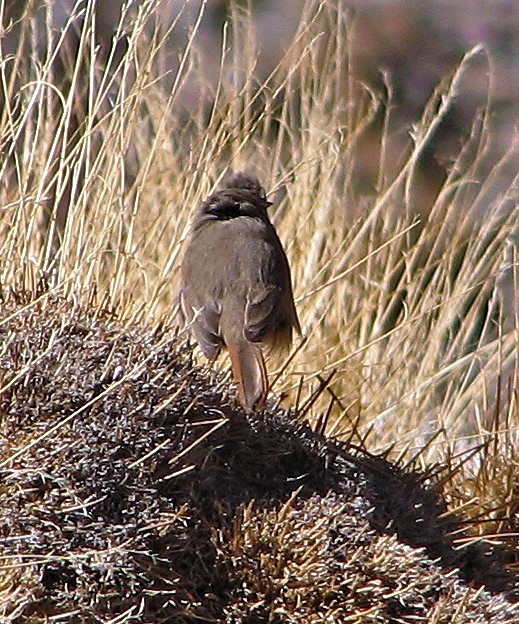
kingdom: Animalia
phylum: Chordata
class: Aves
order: Passeriformes
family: Furnariidae
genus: Asthenes
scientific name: Asthenes modesta
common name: Cordilleran canastero
